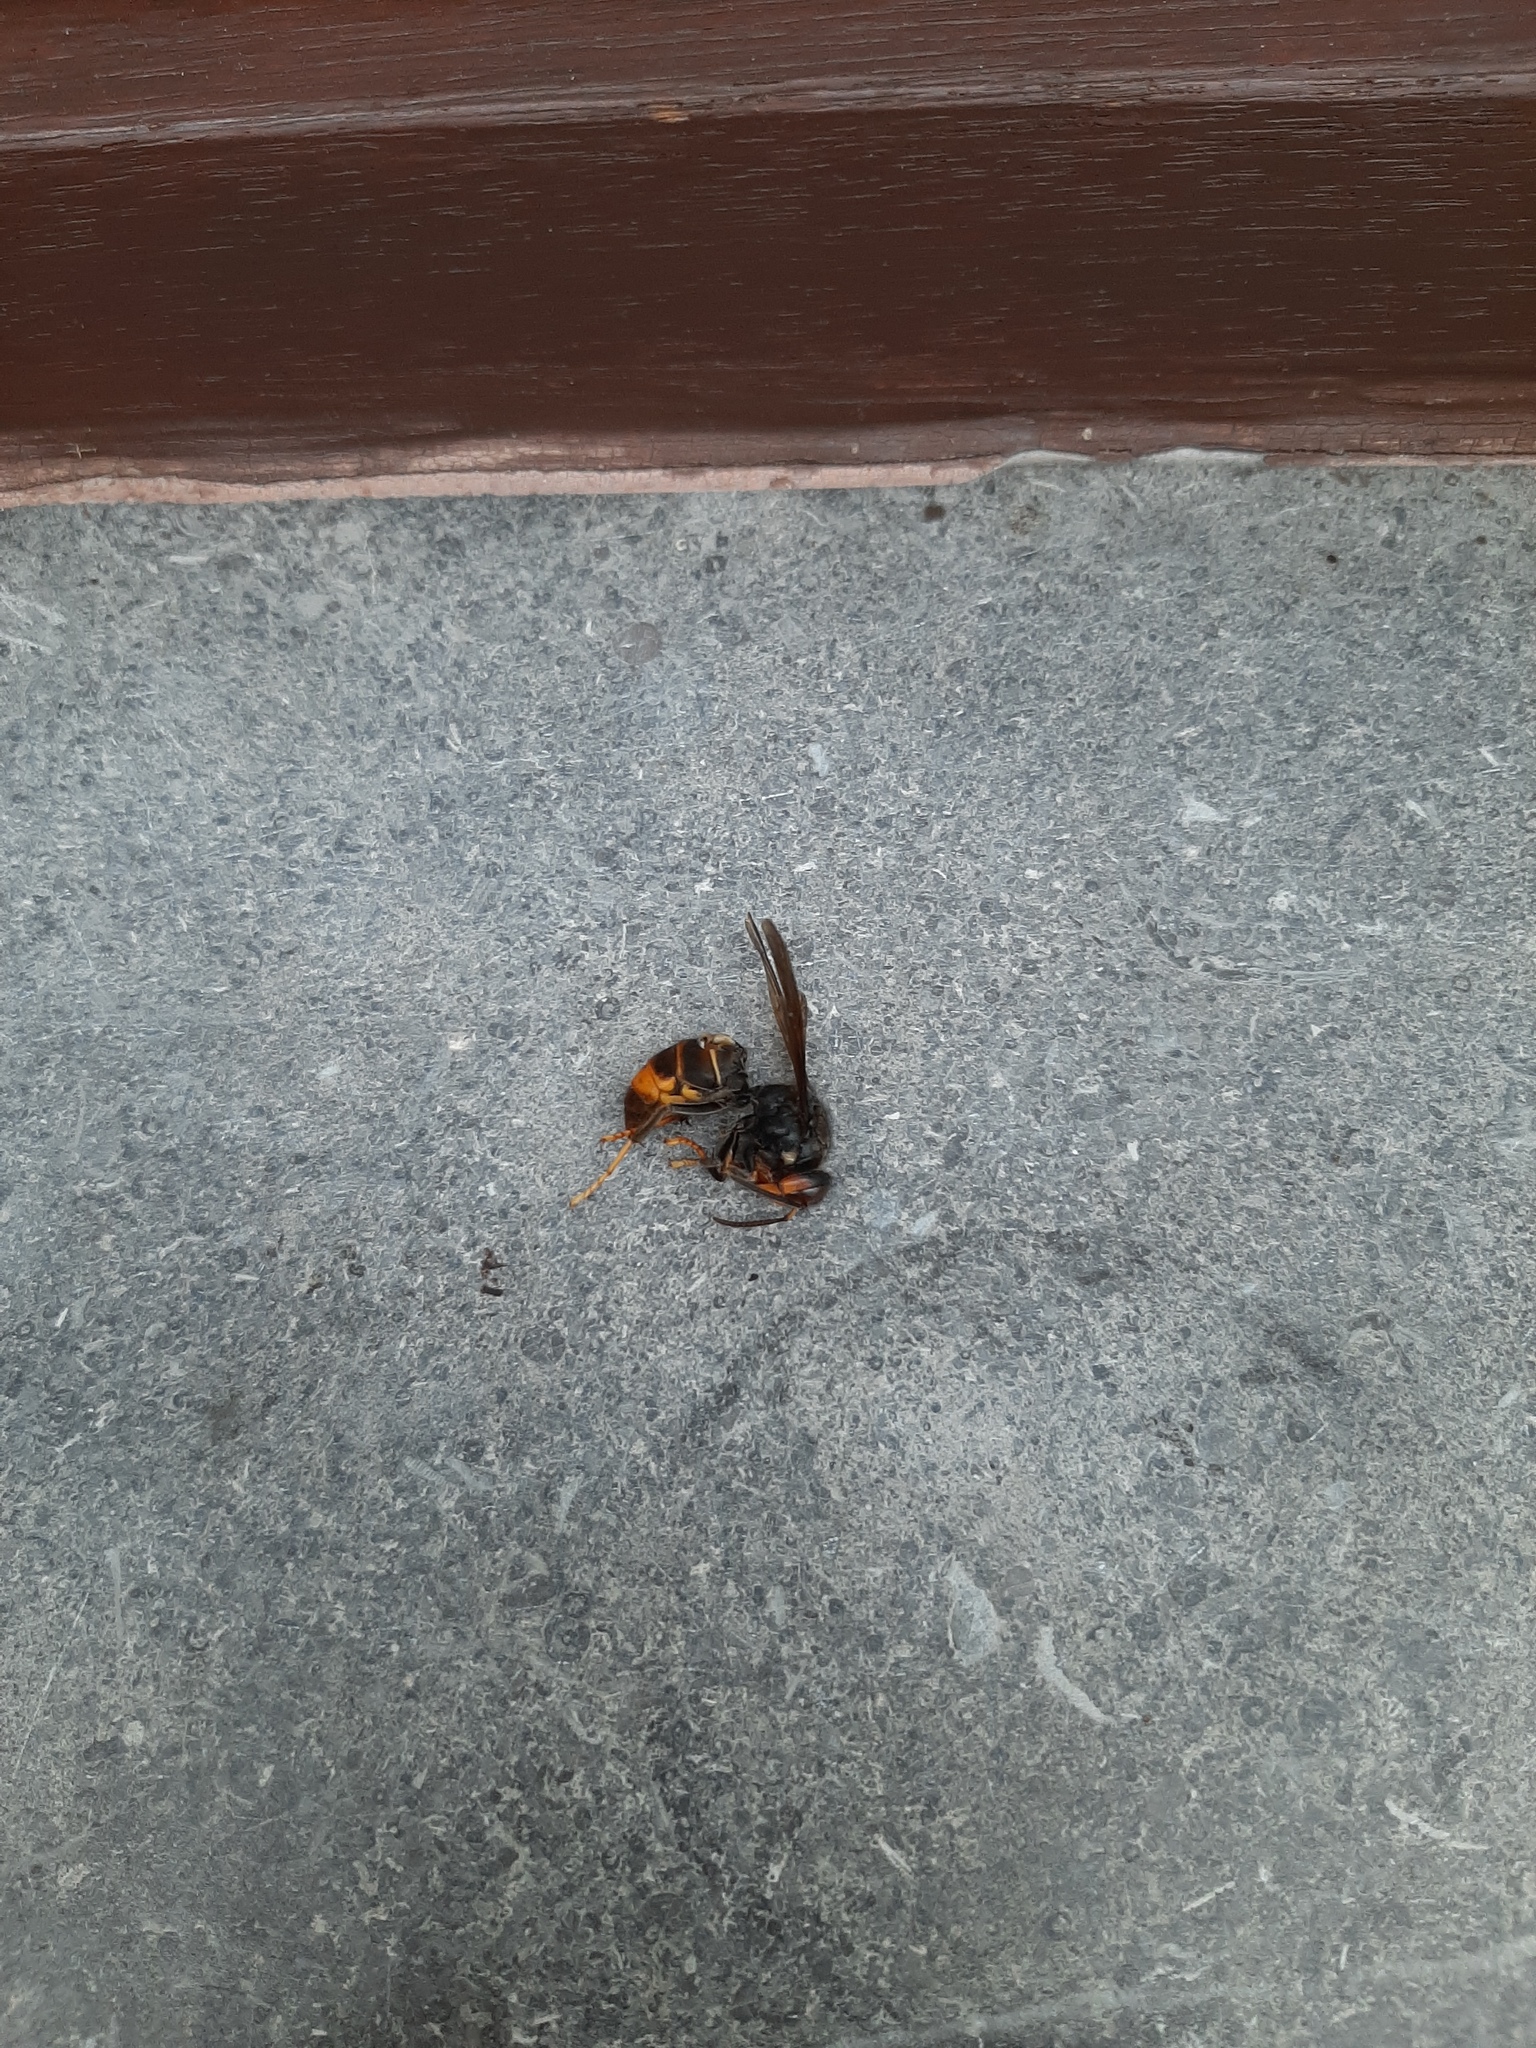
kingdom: Animalia
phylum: Arthropoda
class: Insecta
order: Hymenoptera
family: Vespidae
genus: Vespa
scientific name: Vespa velutina
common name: Asian hornet
